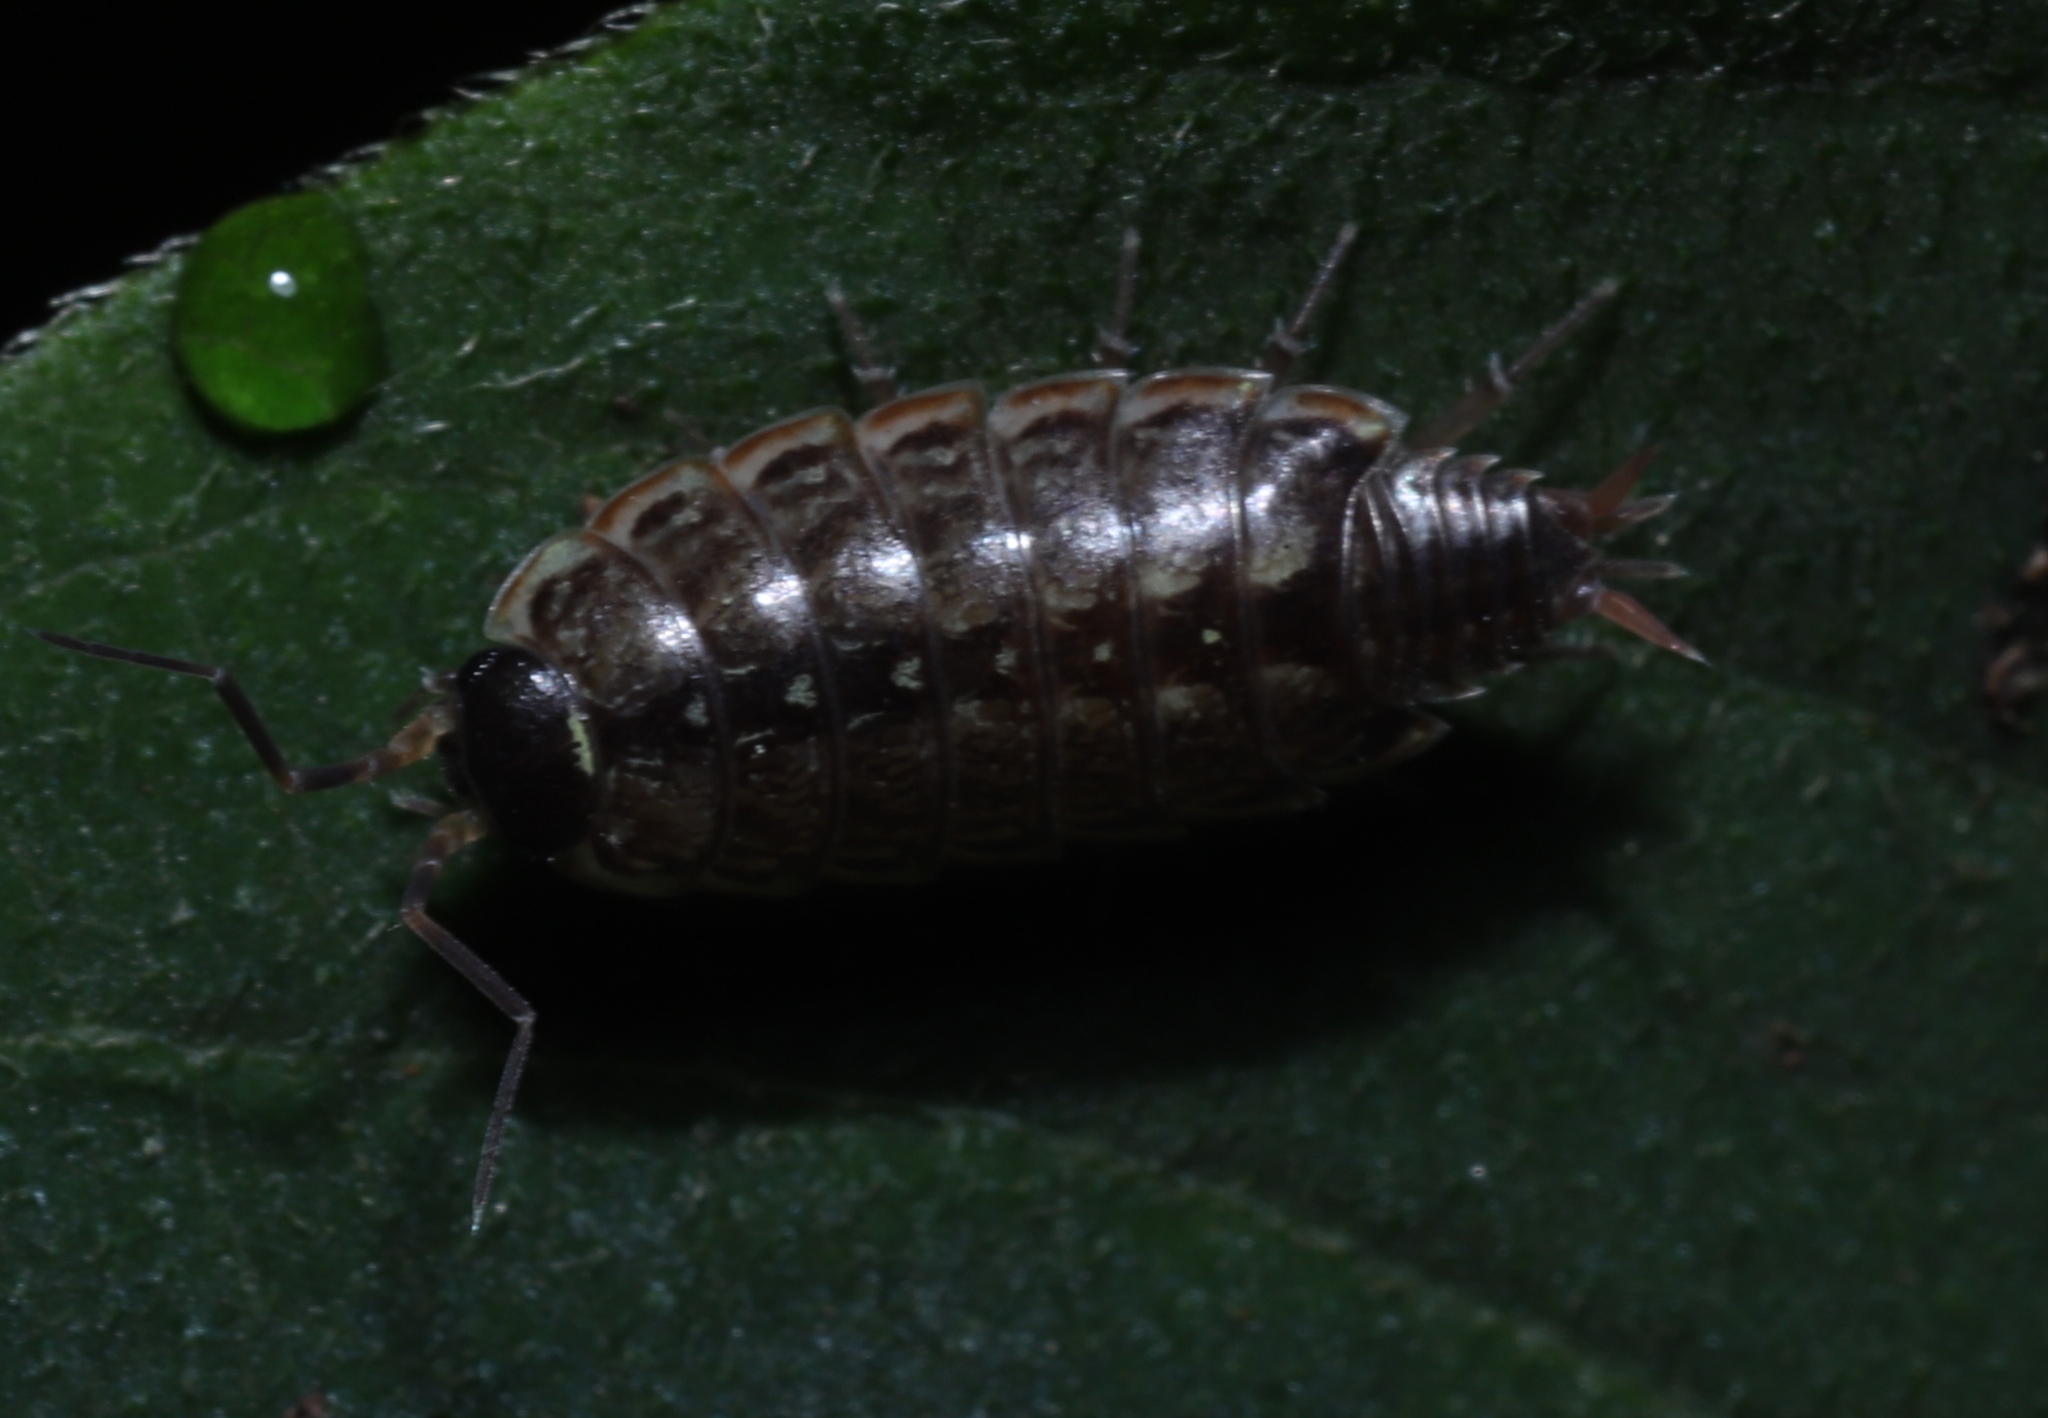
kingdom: Animalia
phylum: Arthropoda
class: Malacostraca
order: Isopoda
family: Philosciidae
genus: Philoscia
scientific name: Philoscia muscorum
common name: Common striped woodlouse
